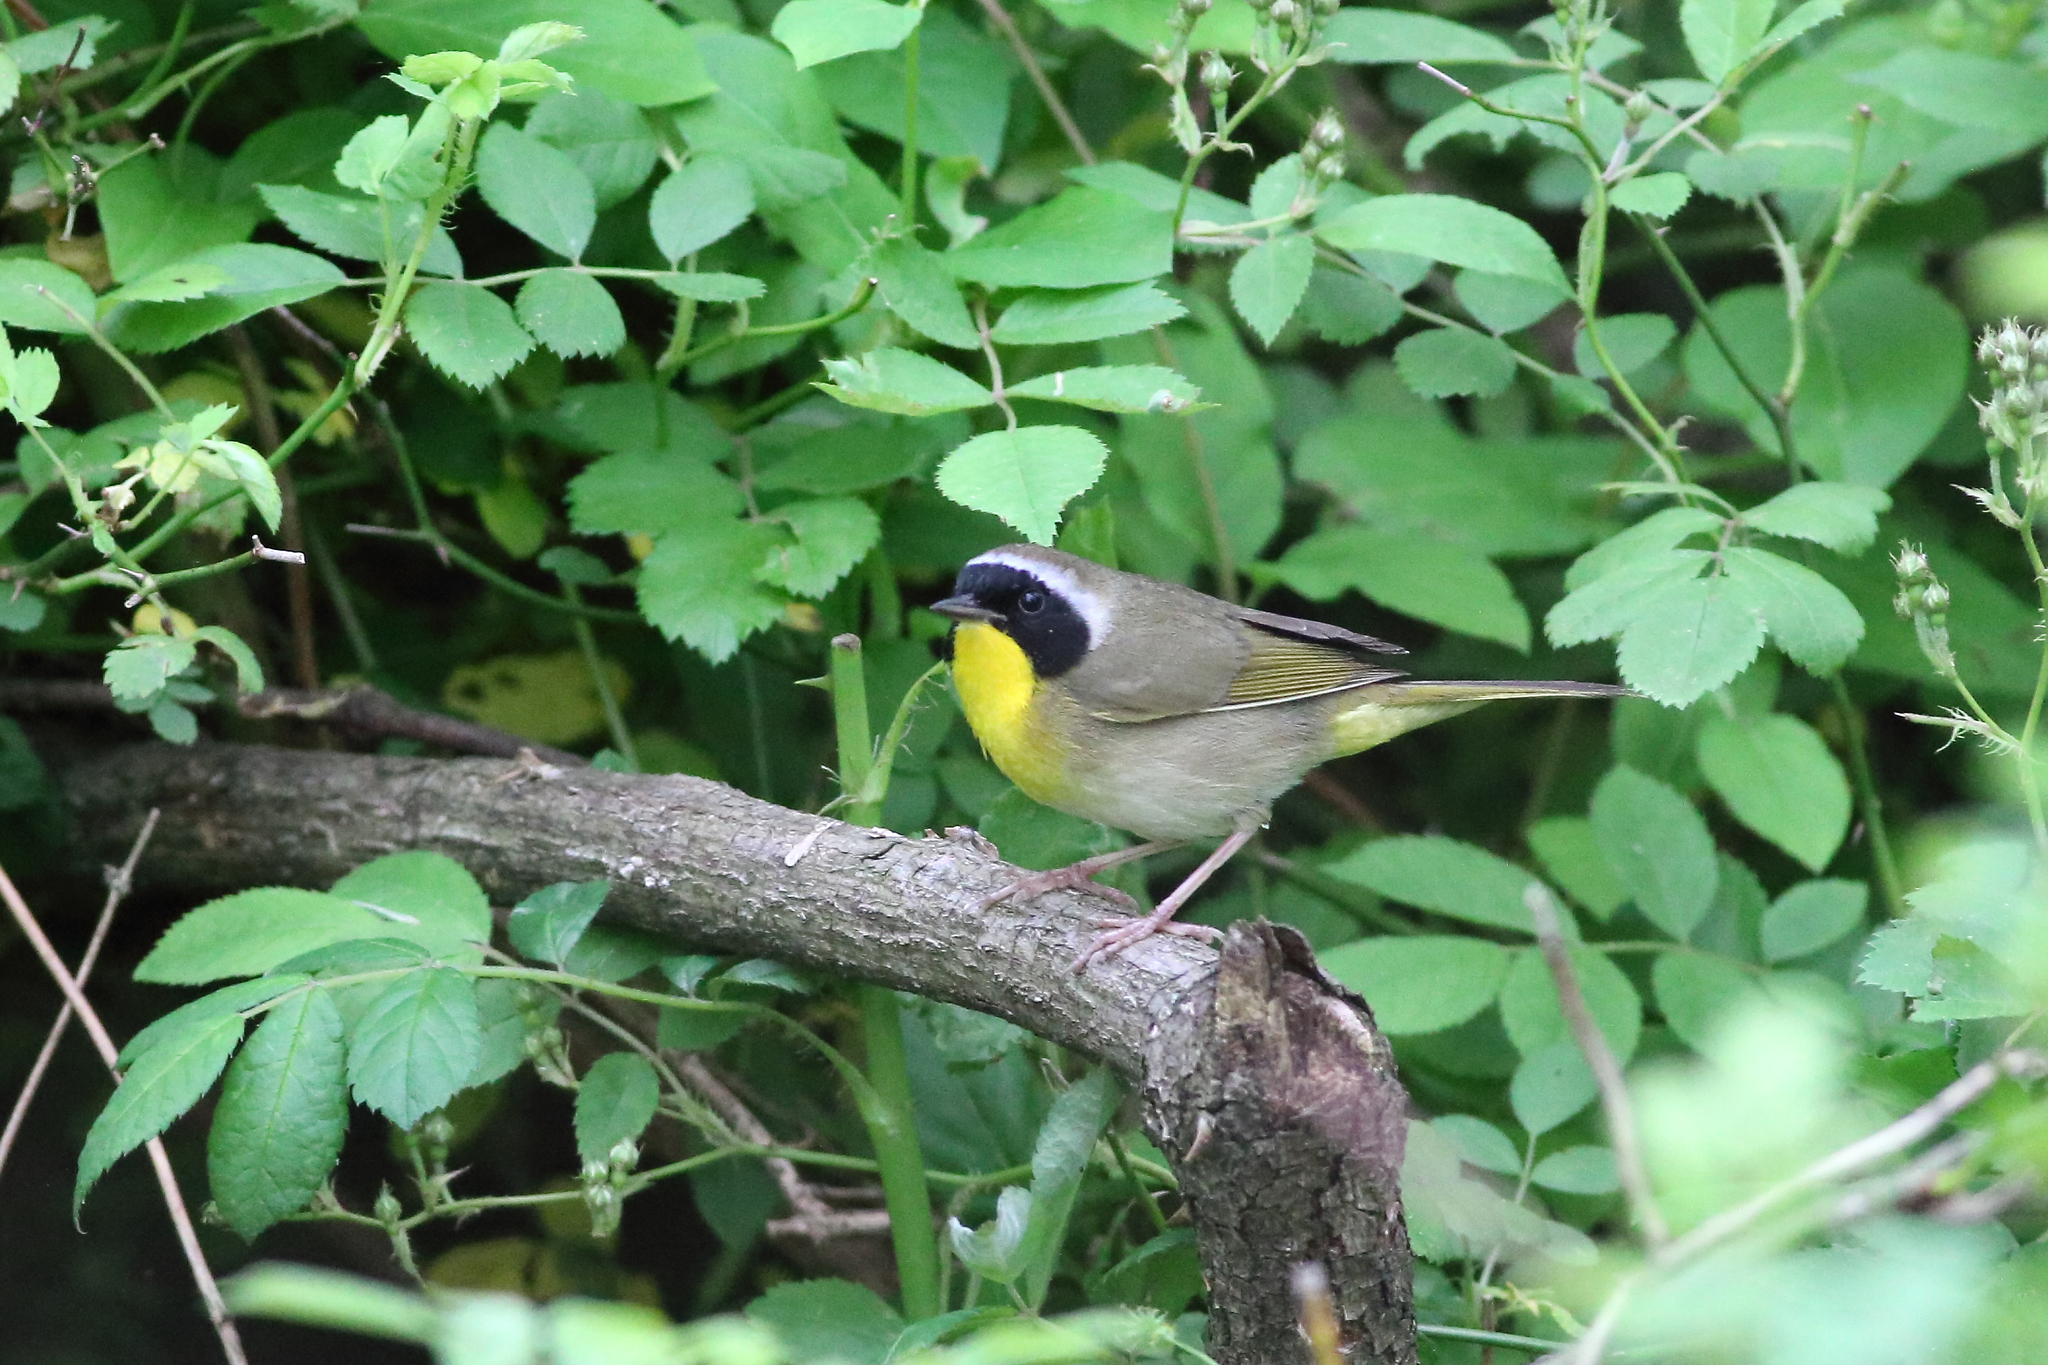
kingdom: Animalia
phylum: Chordata
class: Aves
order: Passeriformes
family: Parulidae
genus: Geothlypis
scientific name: Geothlypis trichas
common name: Common yellowthroat
